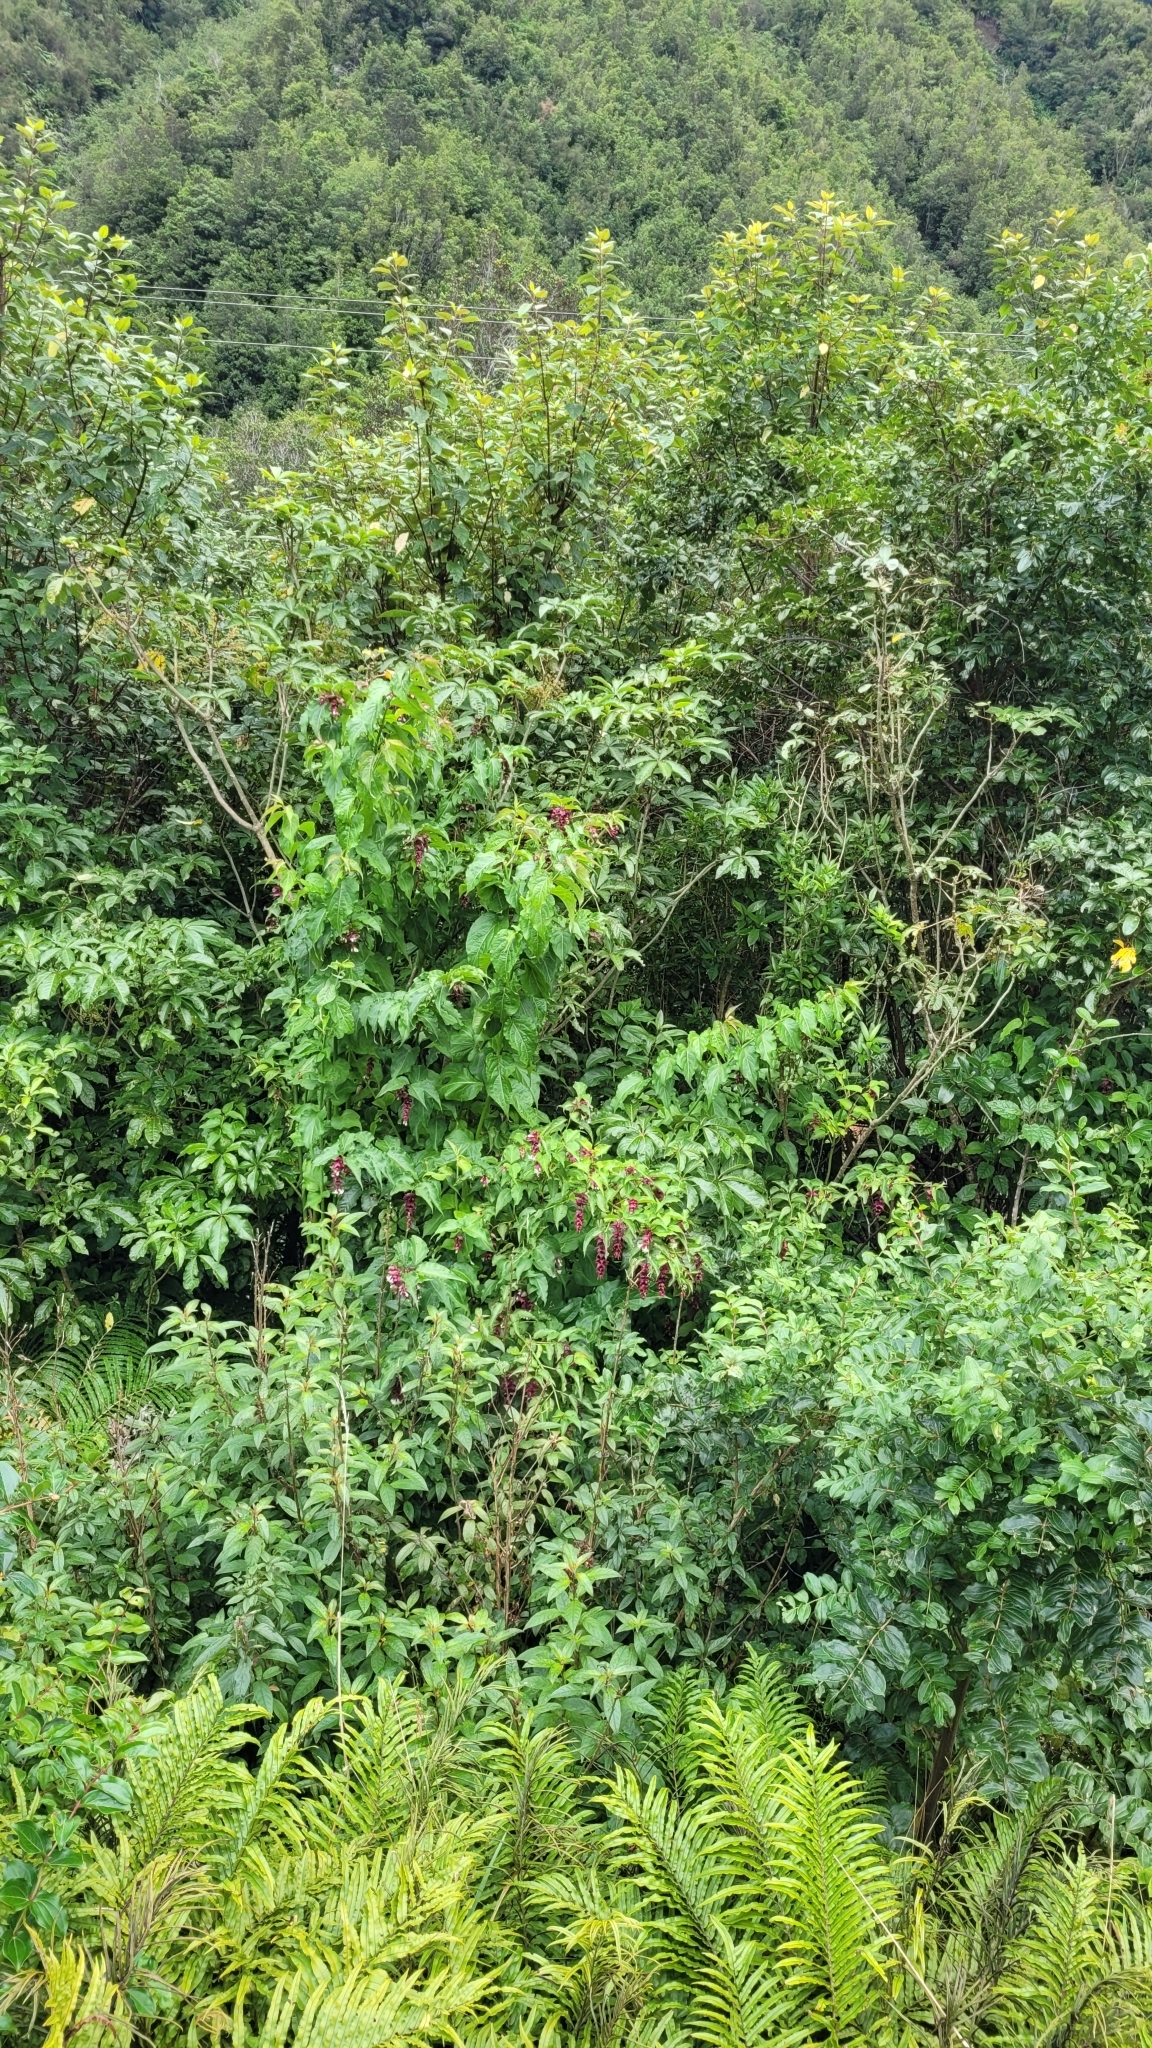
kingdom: Plantae
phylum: Tracheophyta
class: Magnoliopsida
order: Dipsacales
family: Caprifoliaceae
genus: Leycesteria
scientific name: Leycesteria formosa
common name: Himalayan honeysuckle
